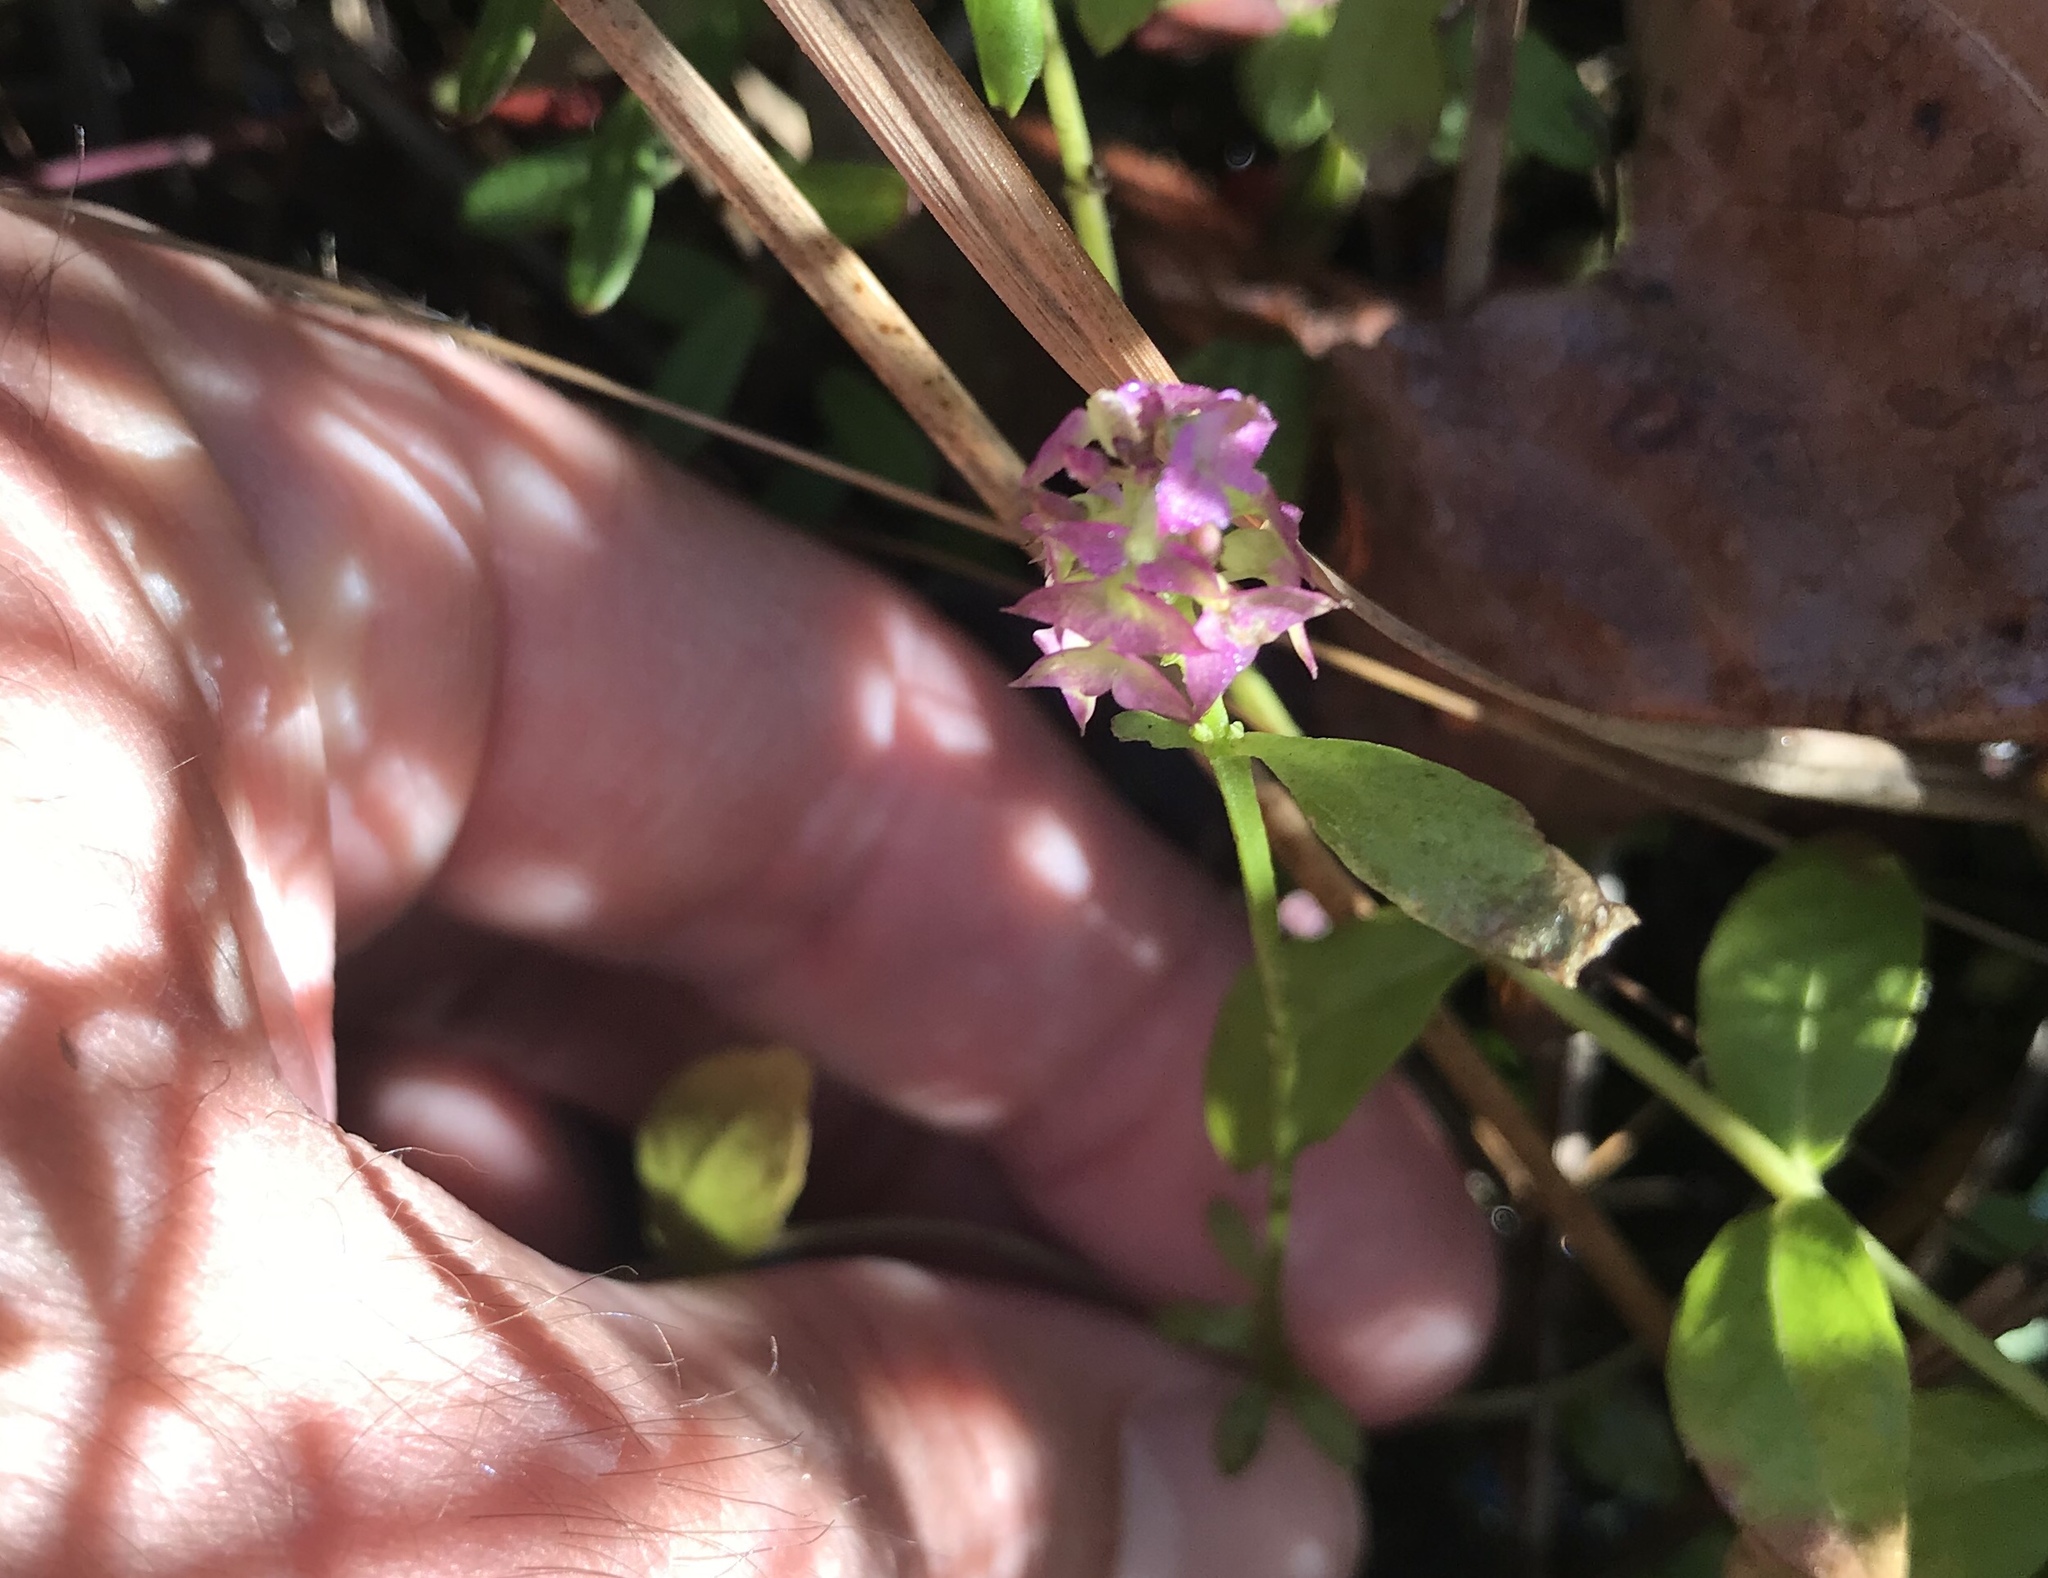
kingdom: Plantae
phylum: Tracheophyta
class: Magnoliopsida
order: Fabales
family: Polygalaceae
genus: Polygala
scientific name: Polygala brevifolia
